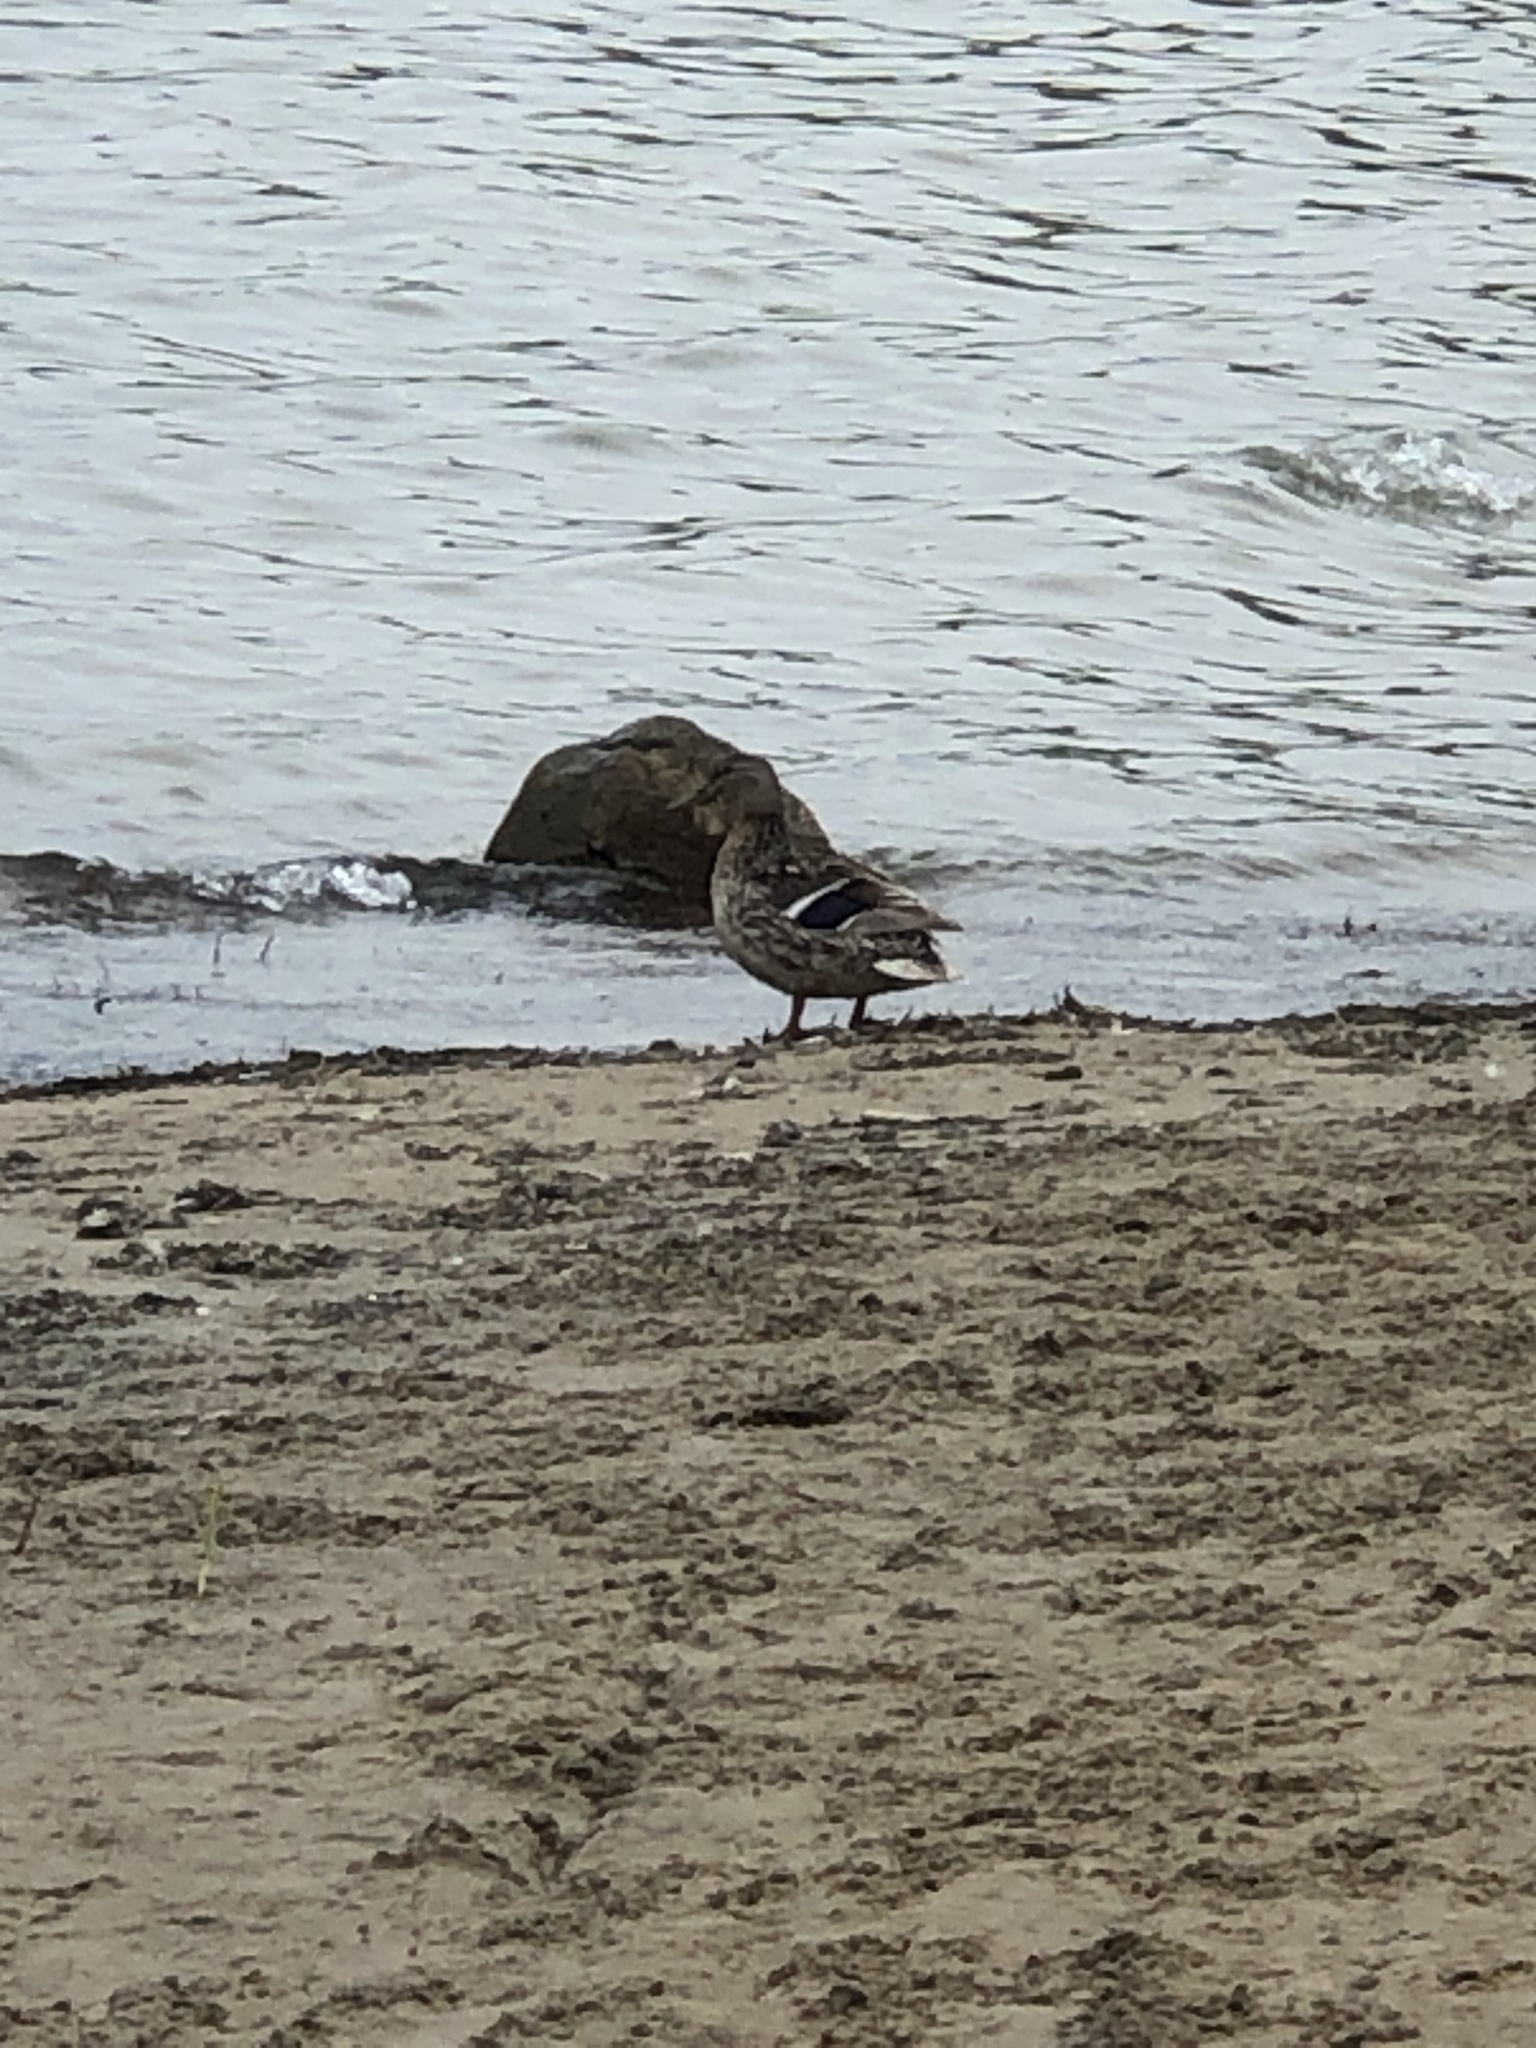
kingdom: Animalia
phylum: Chordata
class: Aves
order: Anseriformes
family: Anatidae
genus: Anas
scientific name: Anas platyrhynchos
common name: Mallard
